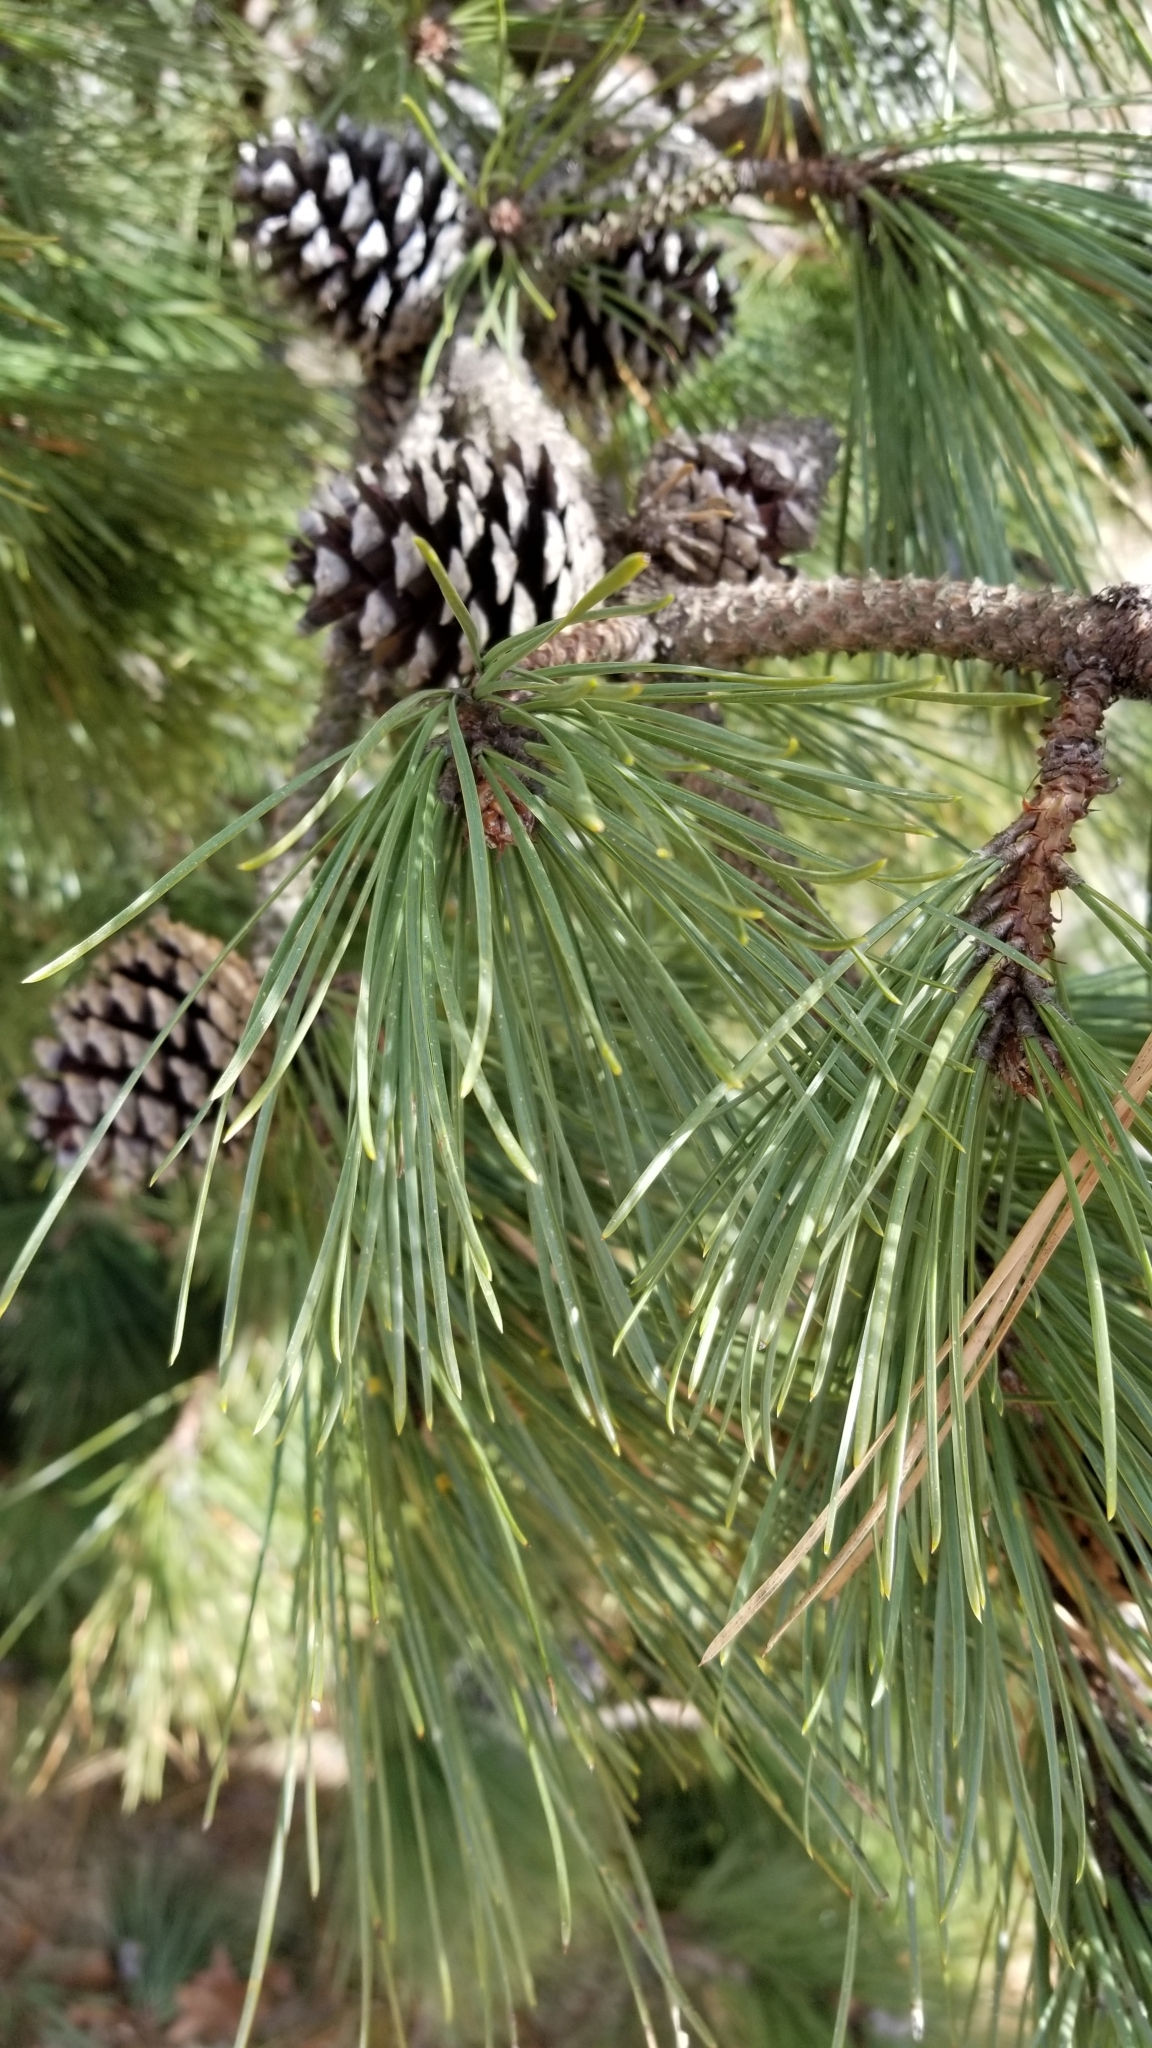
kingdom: Plantae
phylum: Tracheophyta
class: Pinopsida
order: Pinales
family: Pinaceae
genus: Pinus
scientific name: Pinus rigida
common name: Pitch pine
